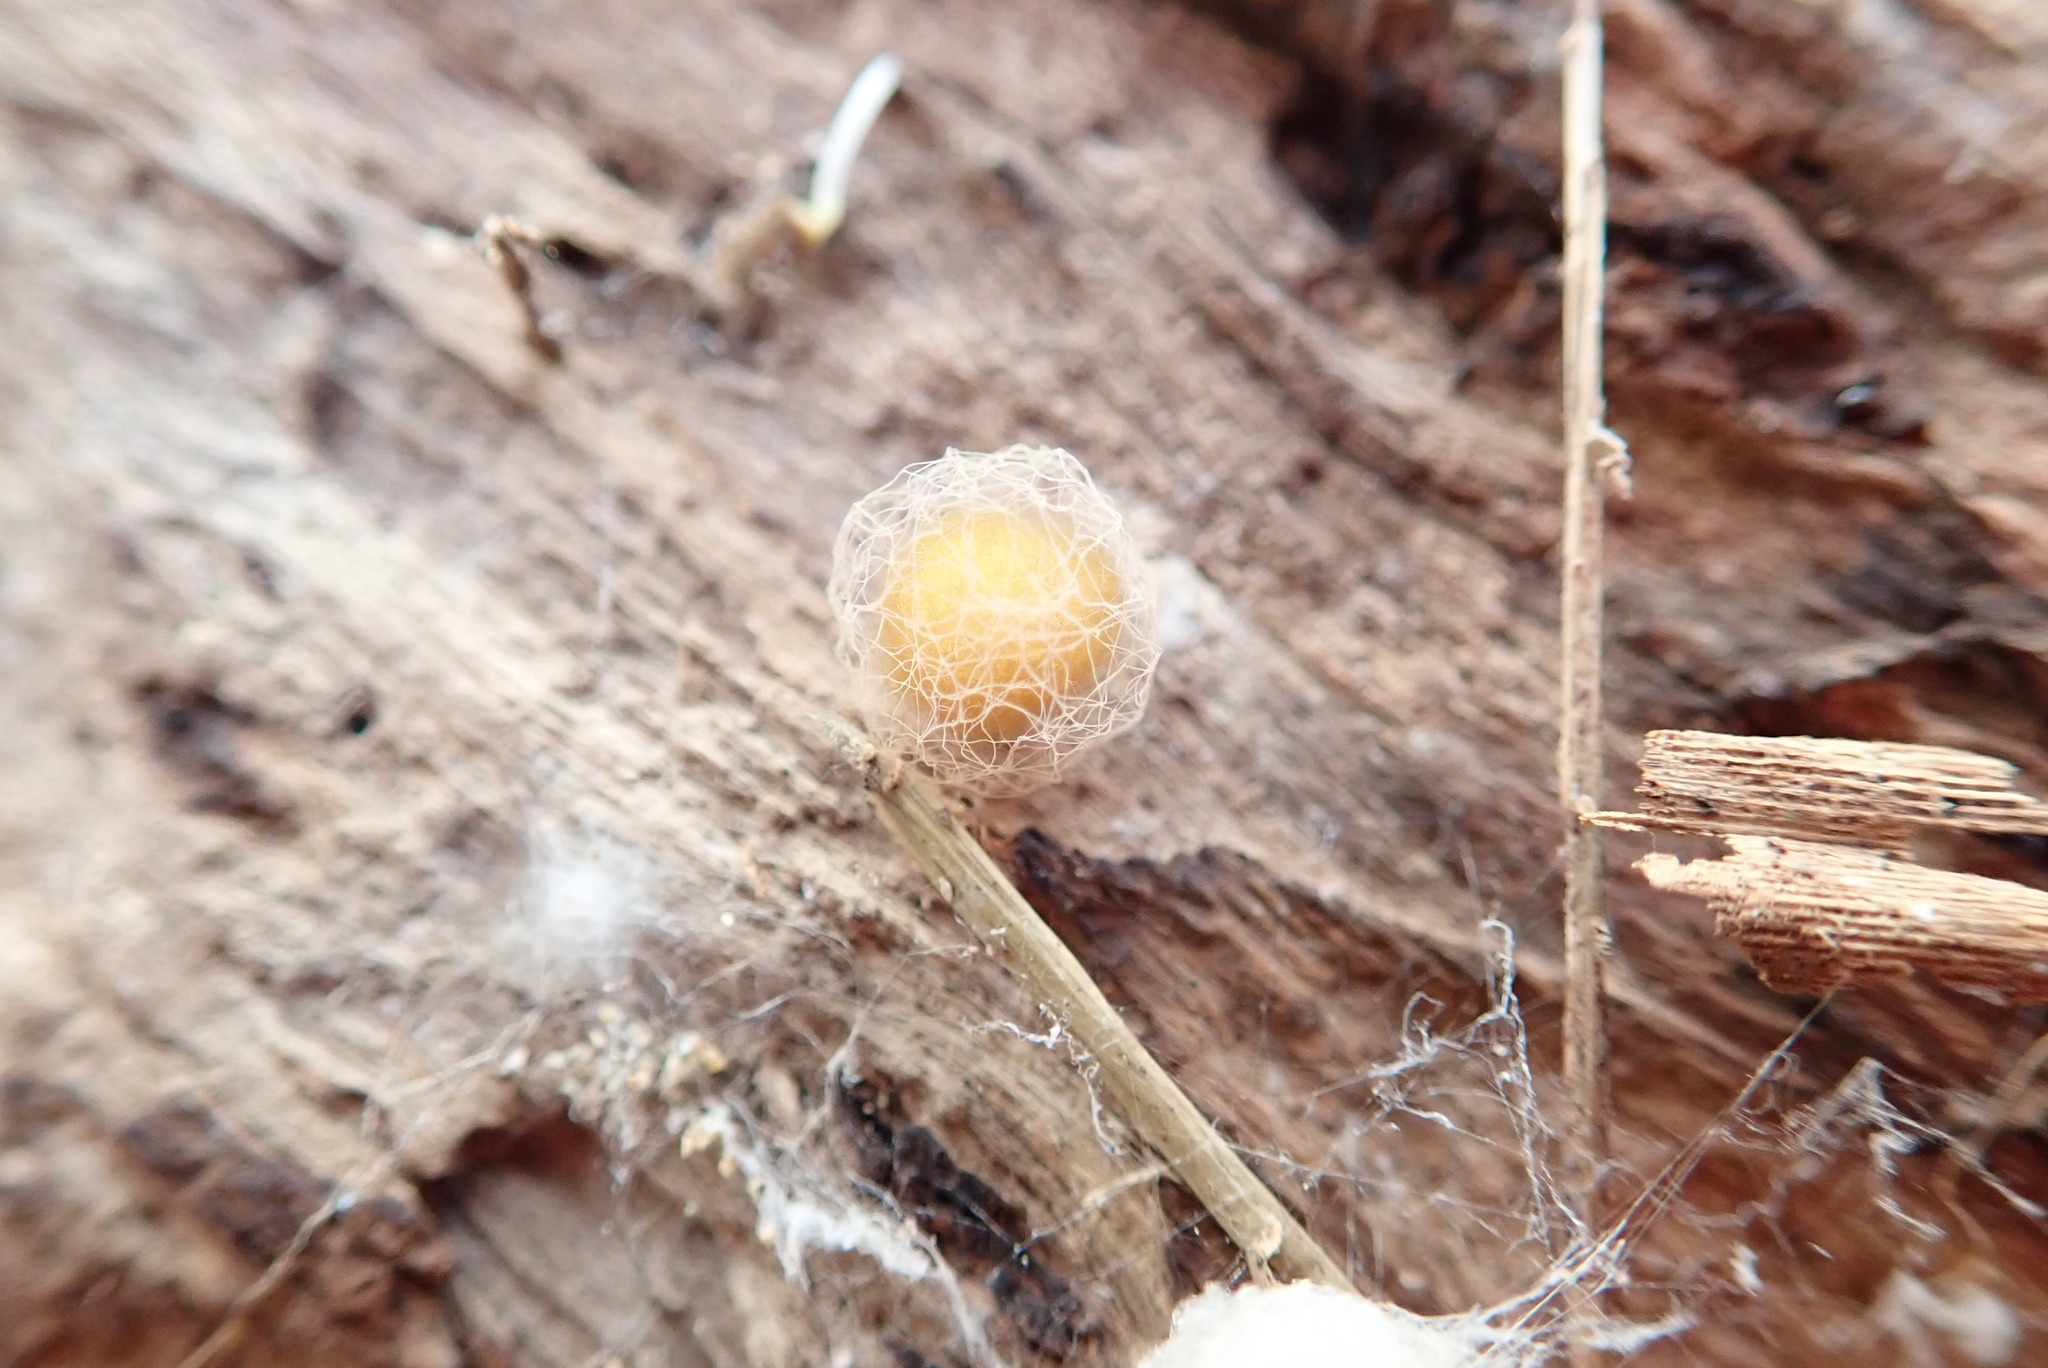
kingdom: Animalia
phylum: Arthropoda
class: Arachnida
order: Araneae
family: Mimetidae
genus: Australomimetus
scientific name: Australomimetus hartleyensis
